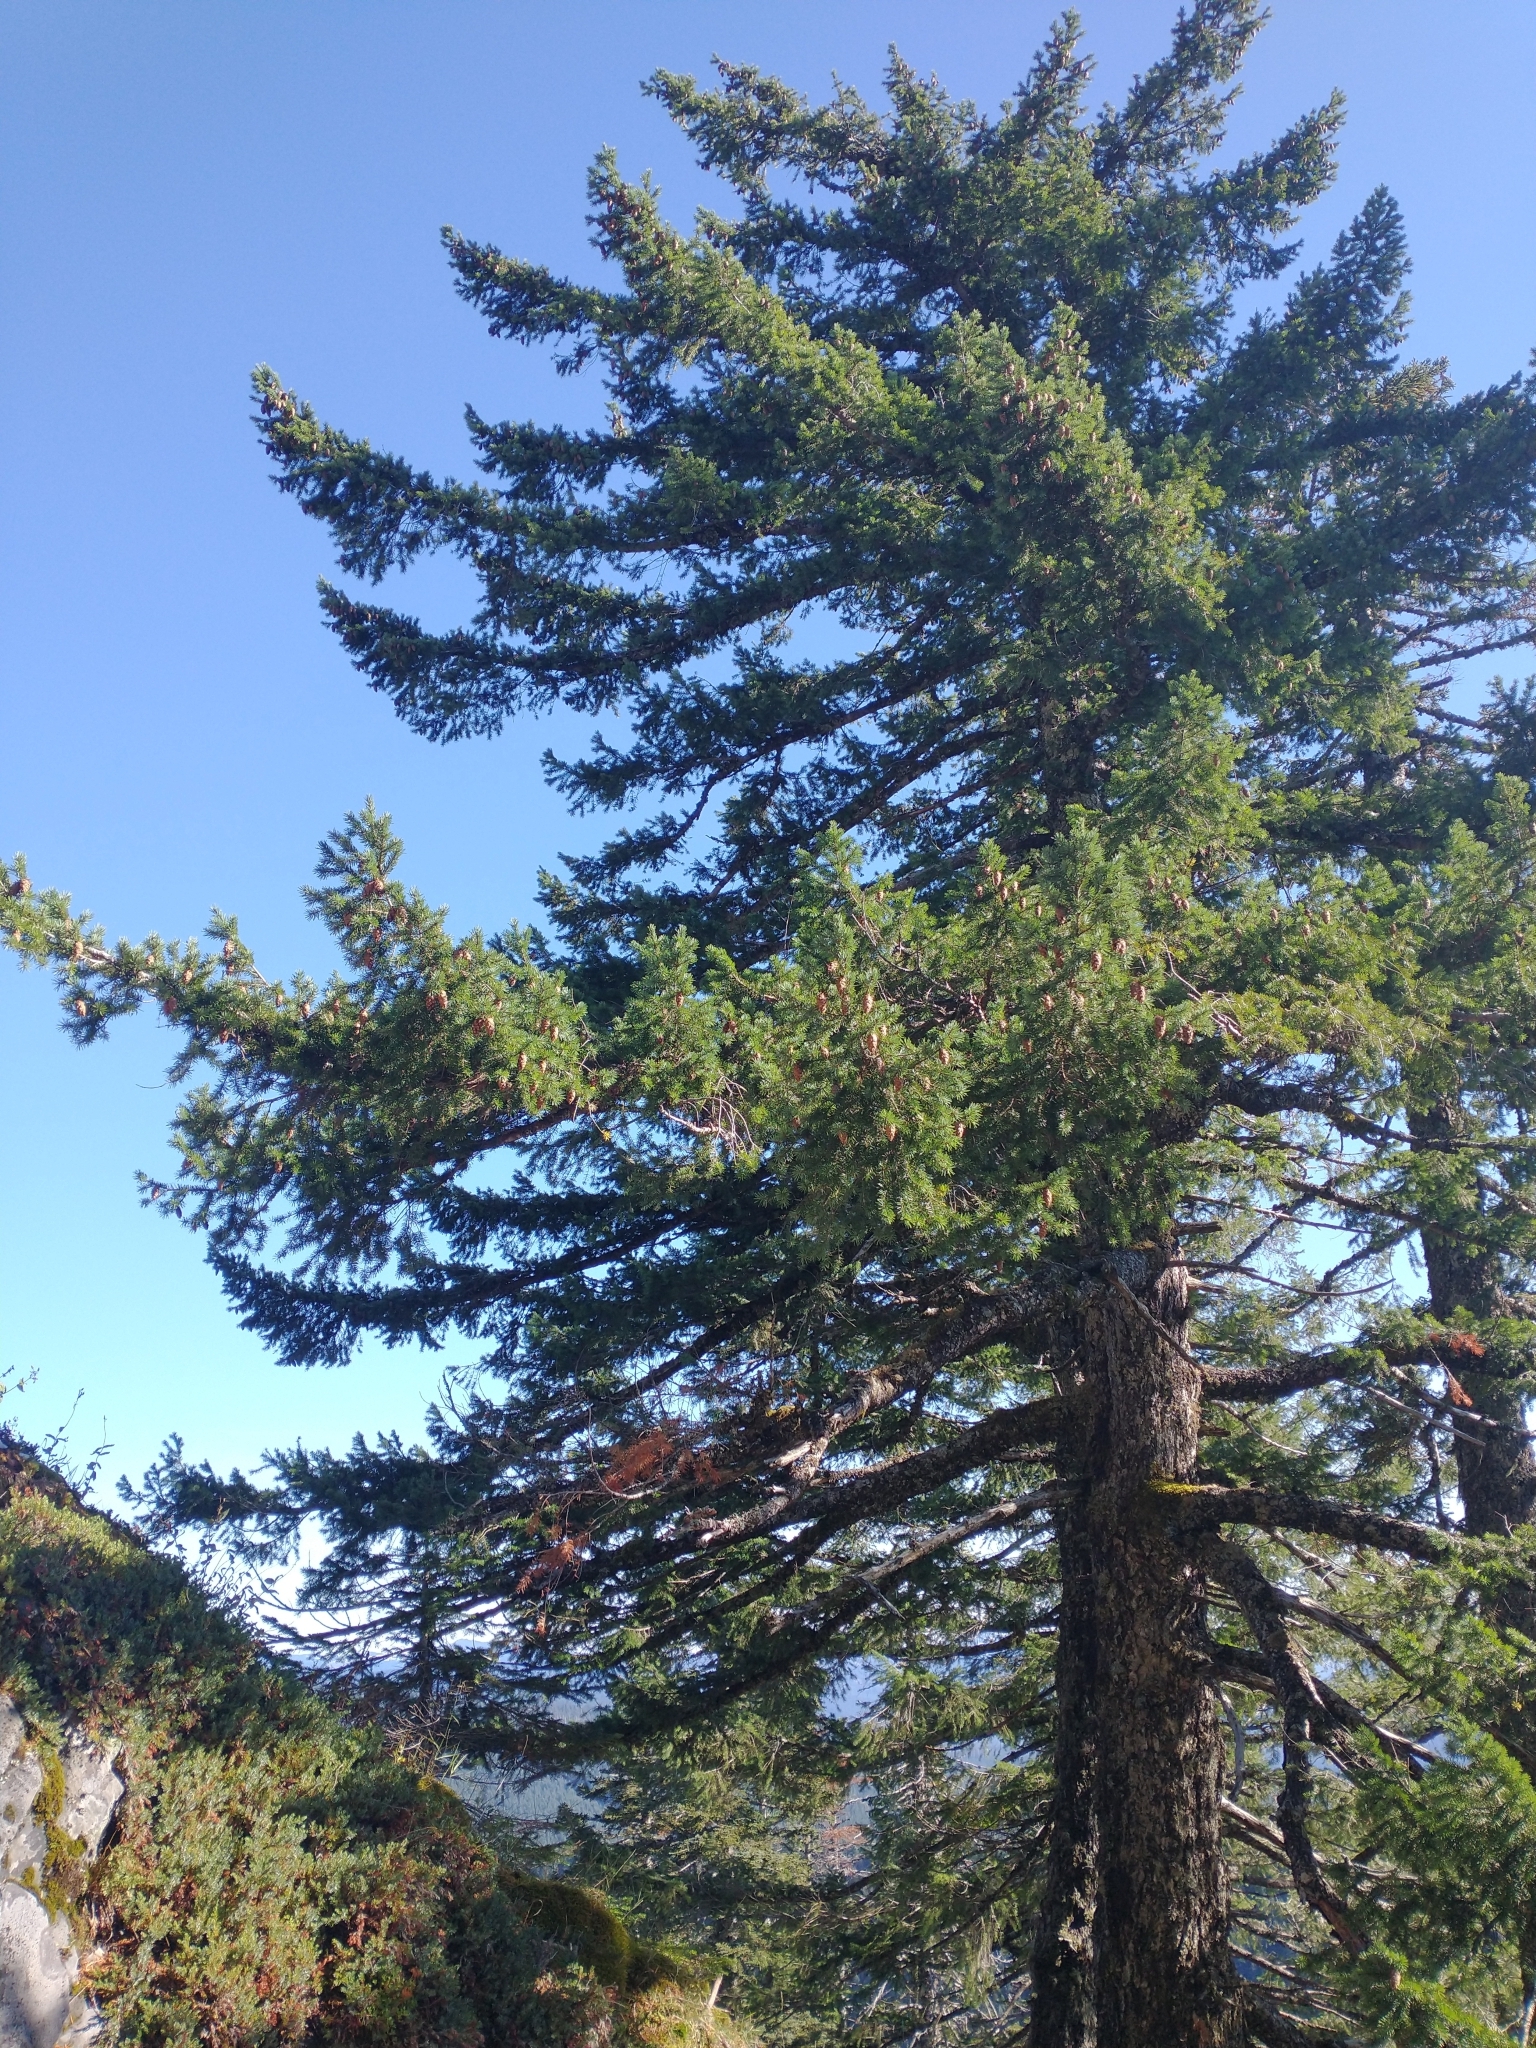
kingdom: Plantae
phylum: Tracheophyta
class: Pinopsida
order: Pinales
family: Pinaceae
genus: Pseudotsuga
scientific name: Pseudotsuga menziesii
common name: Douglas fir
